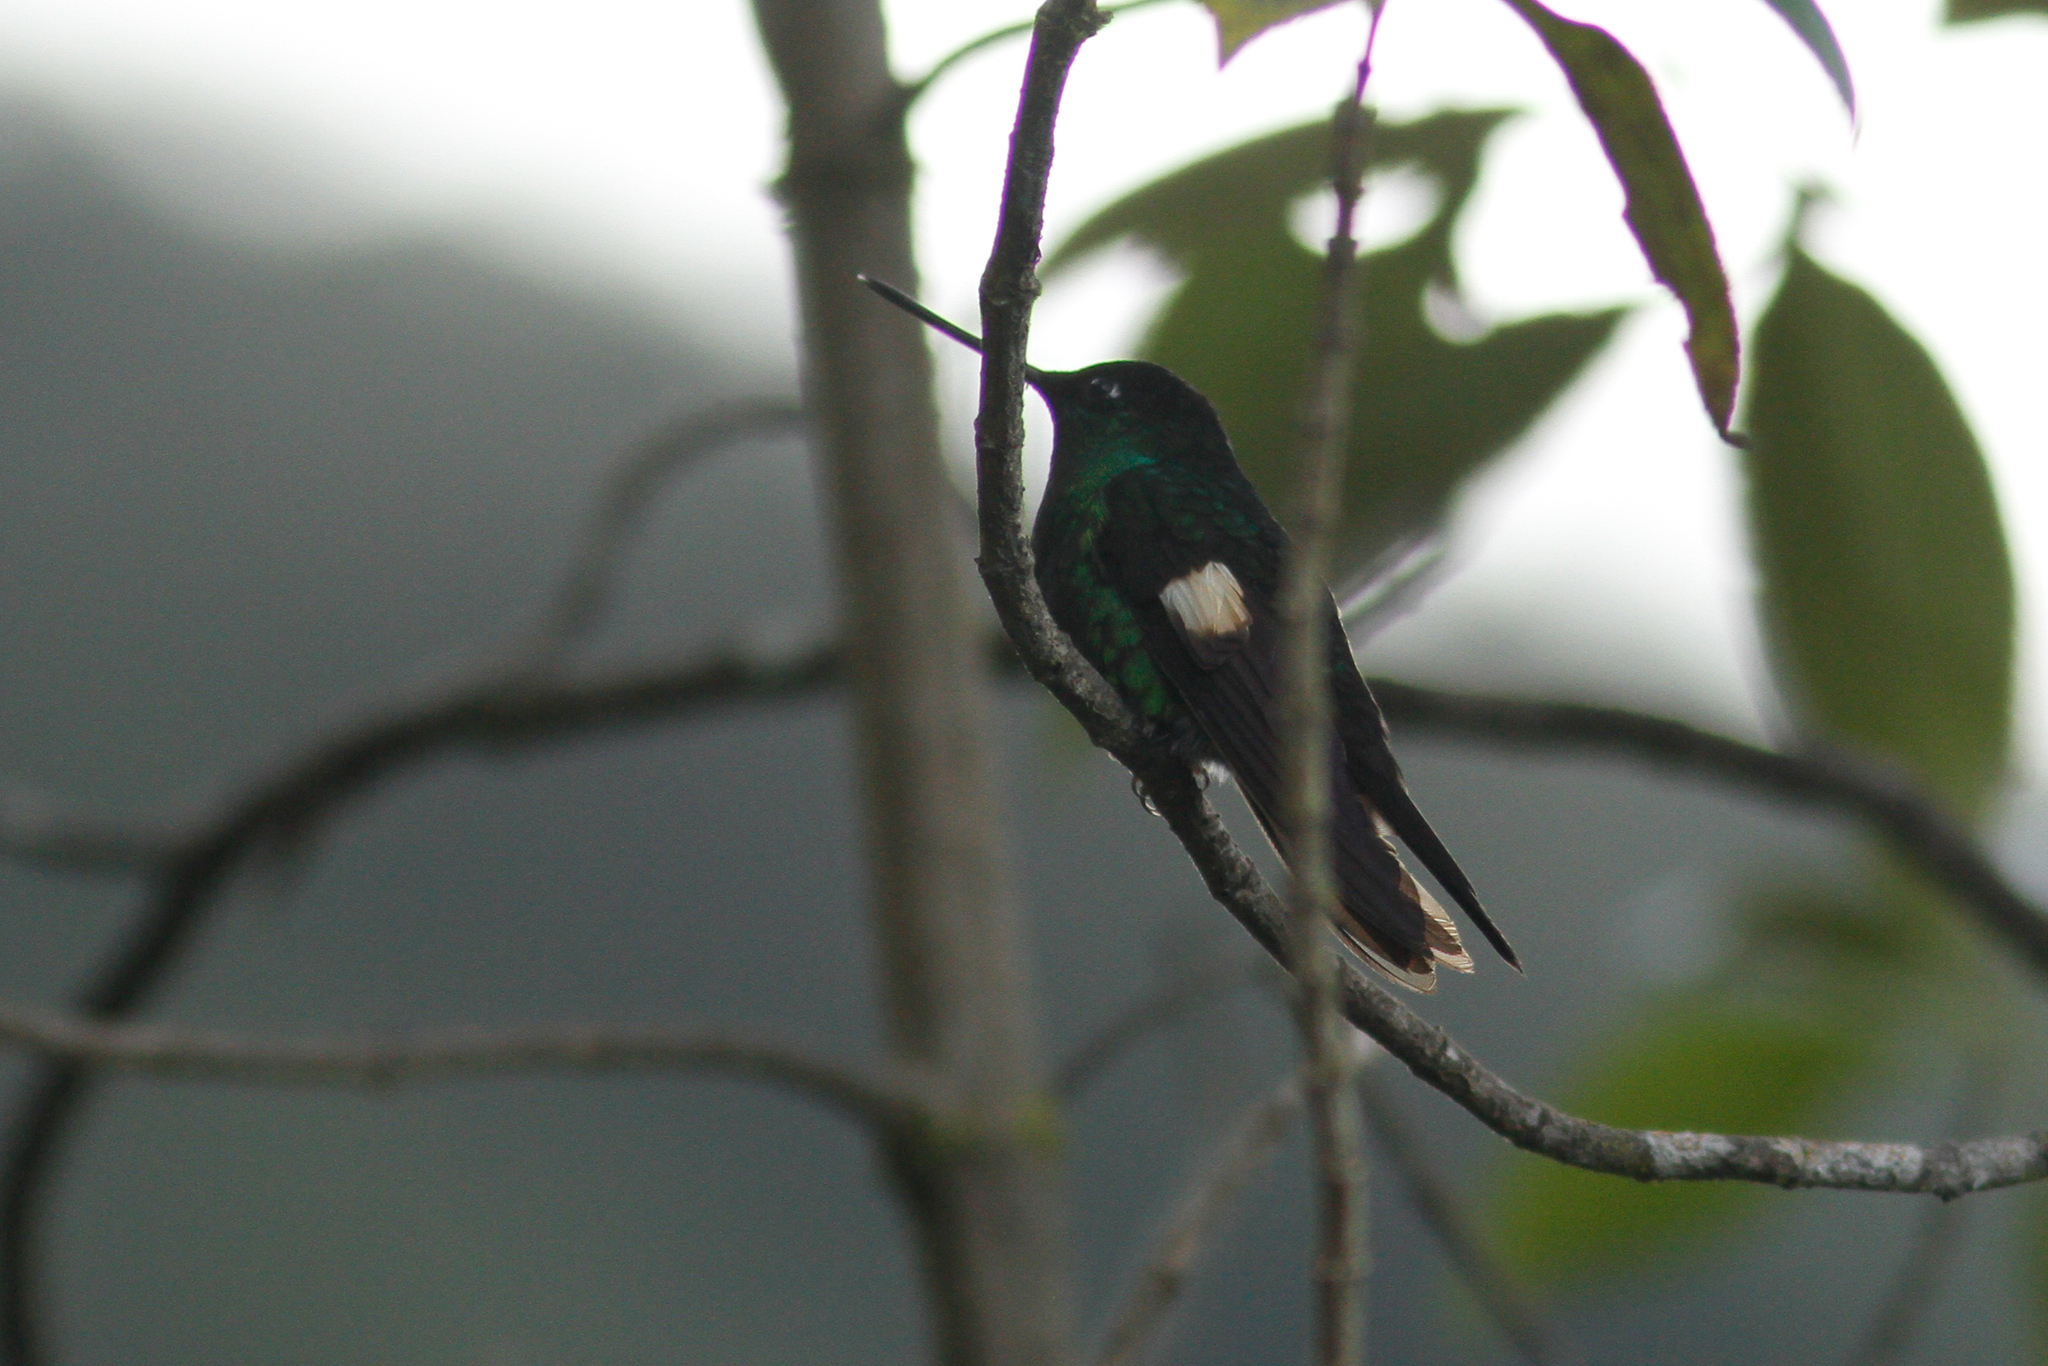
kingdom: Animalia
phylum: Chordata
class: Aves
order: Apodiformes
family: Trochilidae
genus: Coeligena
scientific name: Coeligena lutetiae
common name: Buff-winged starfrontlet
